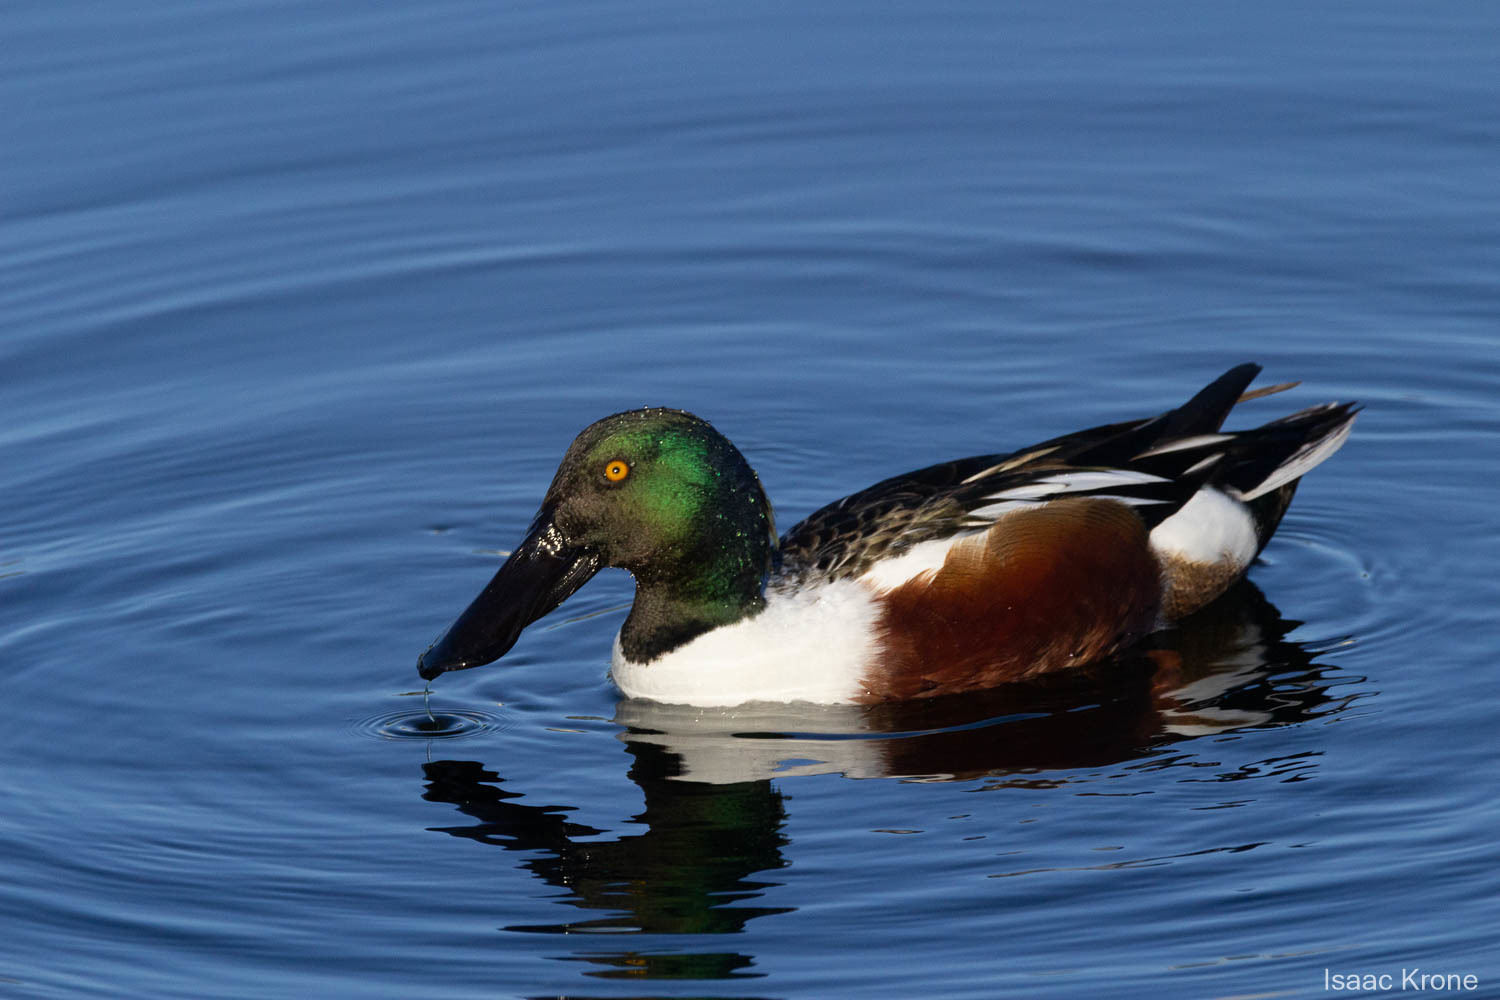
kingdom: Animalia
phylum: Chordata
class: Aves
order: Anseriformes
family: Anatidae
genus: Spatula
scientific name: Spatula clypeata
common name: Northern shoveler
